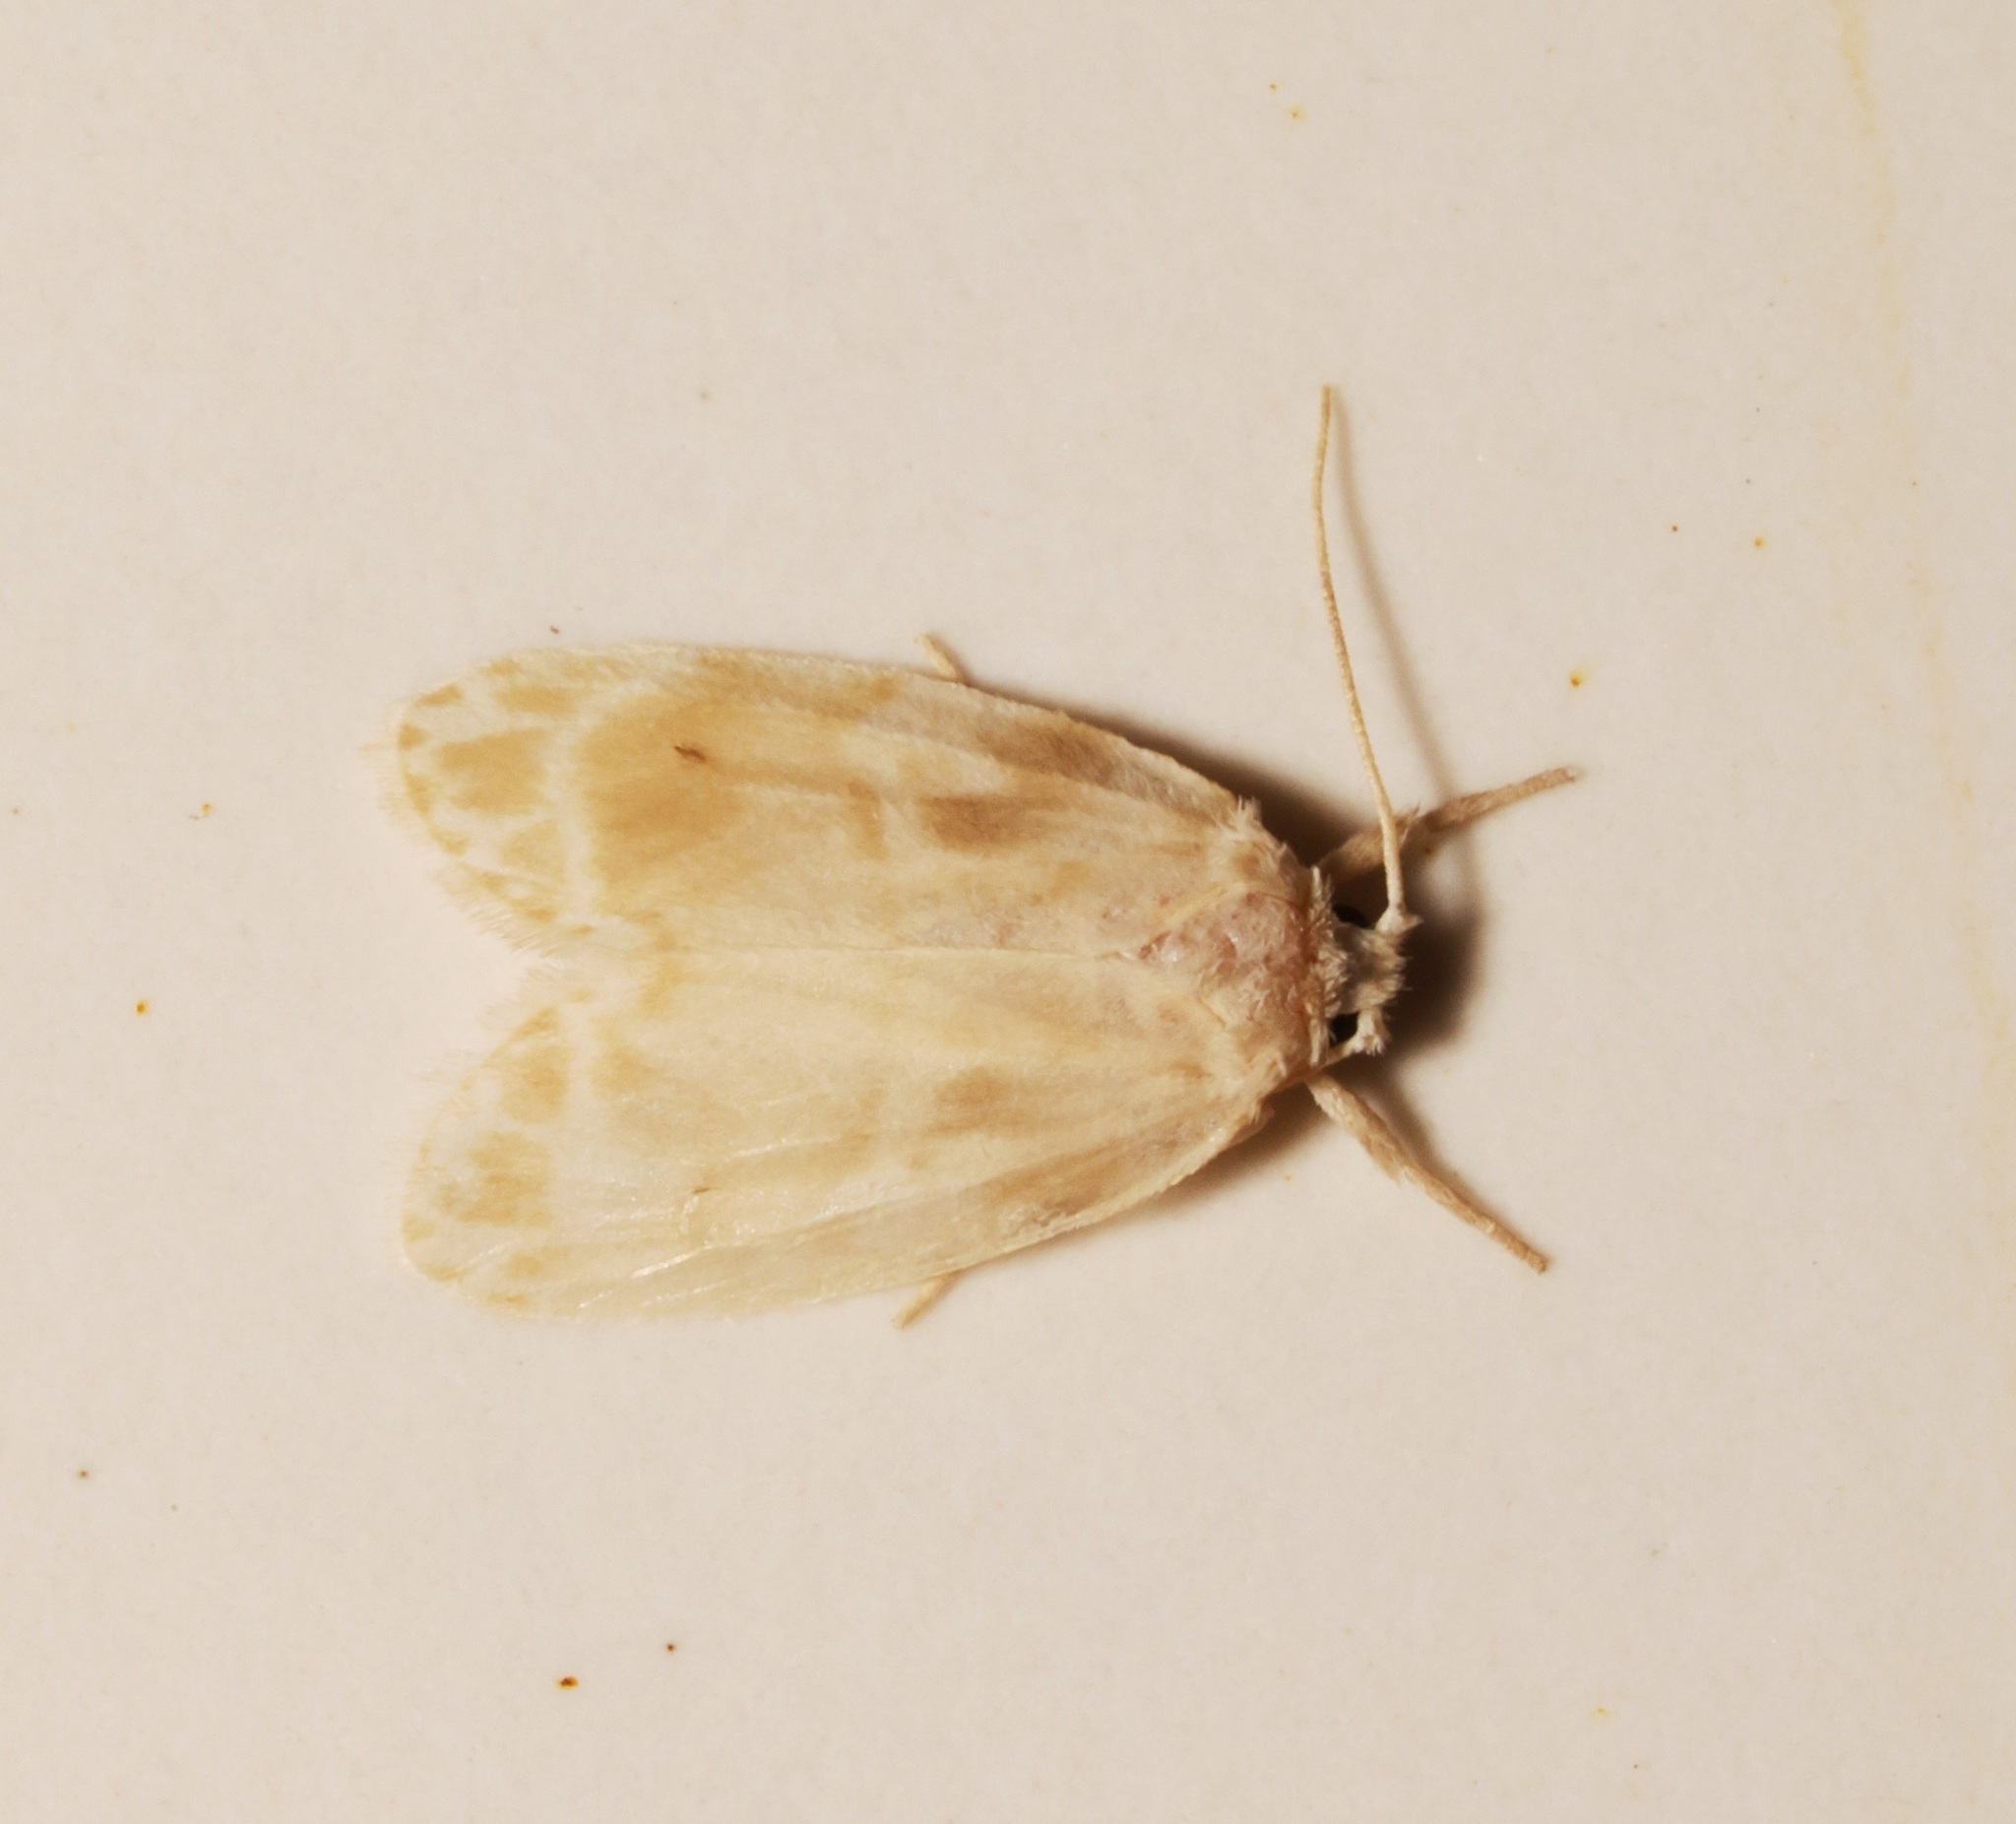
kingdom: Animalia
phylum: Arthropoda
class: Insecta
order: Lepidoptera
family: Erebidae
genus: Schistophleps
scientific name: Schistophleps bipuncta
